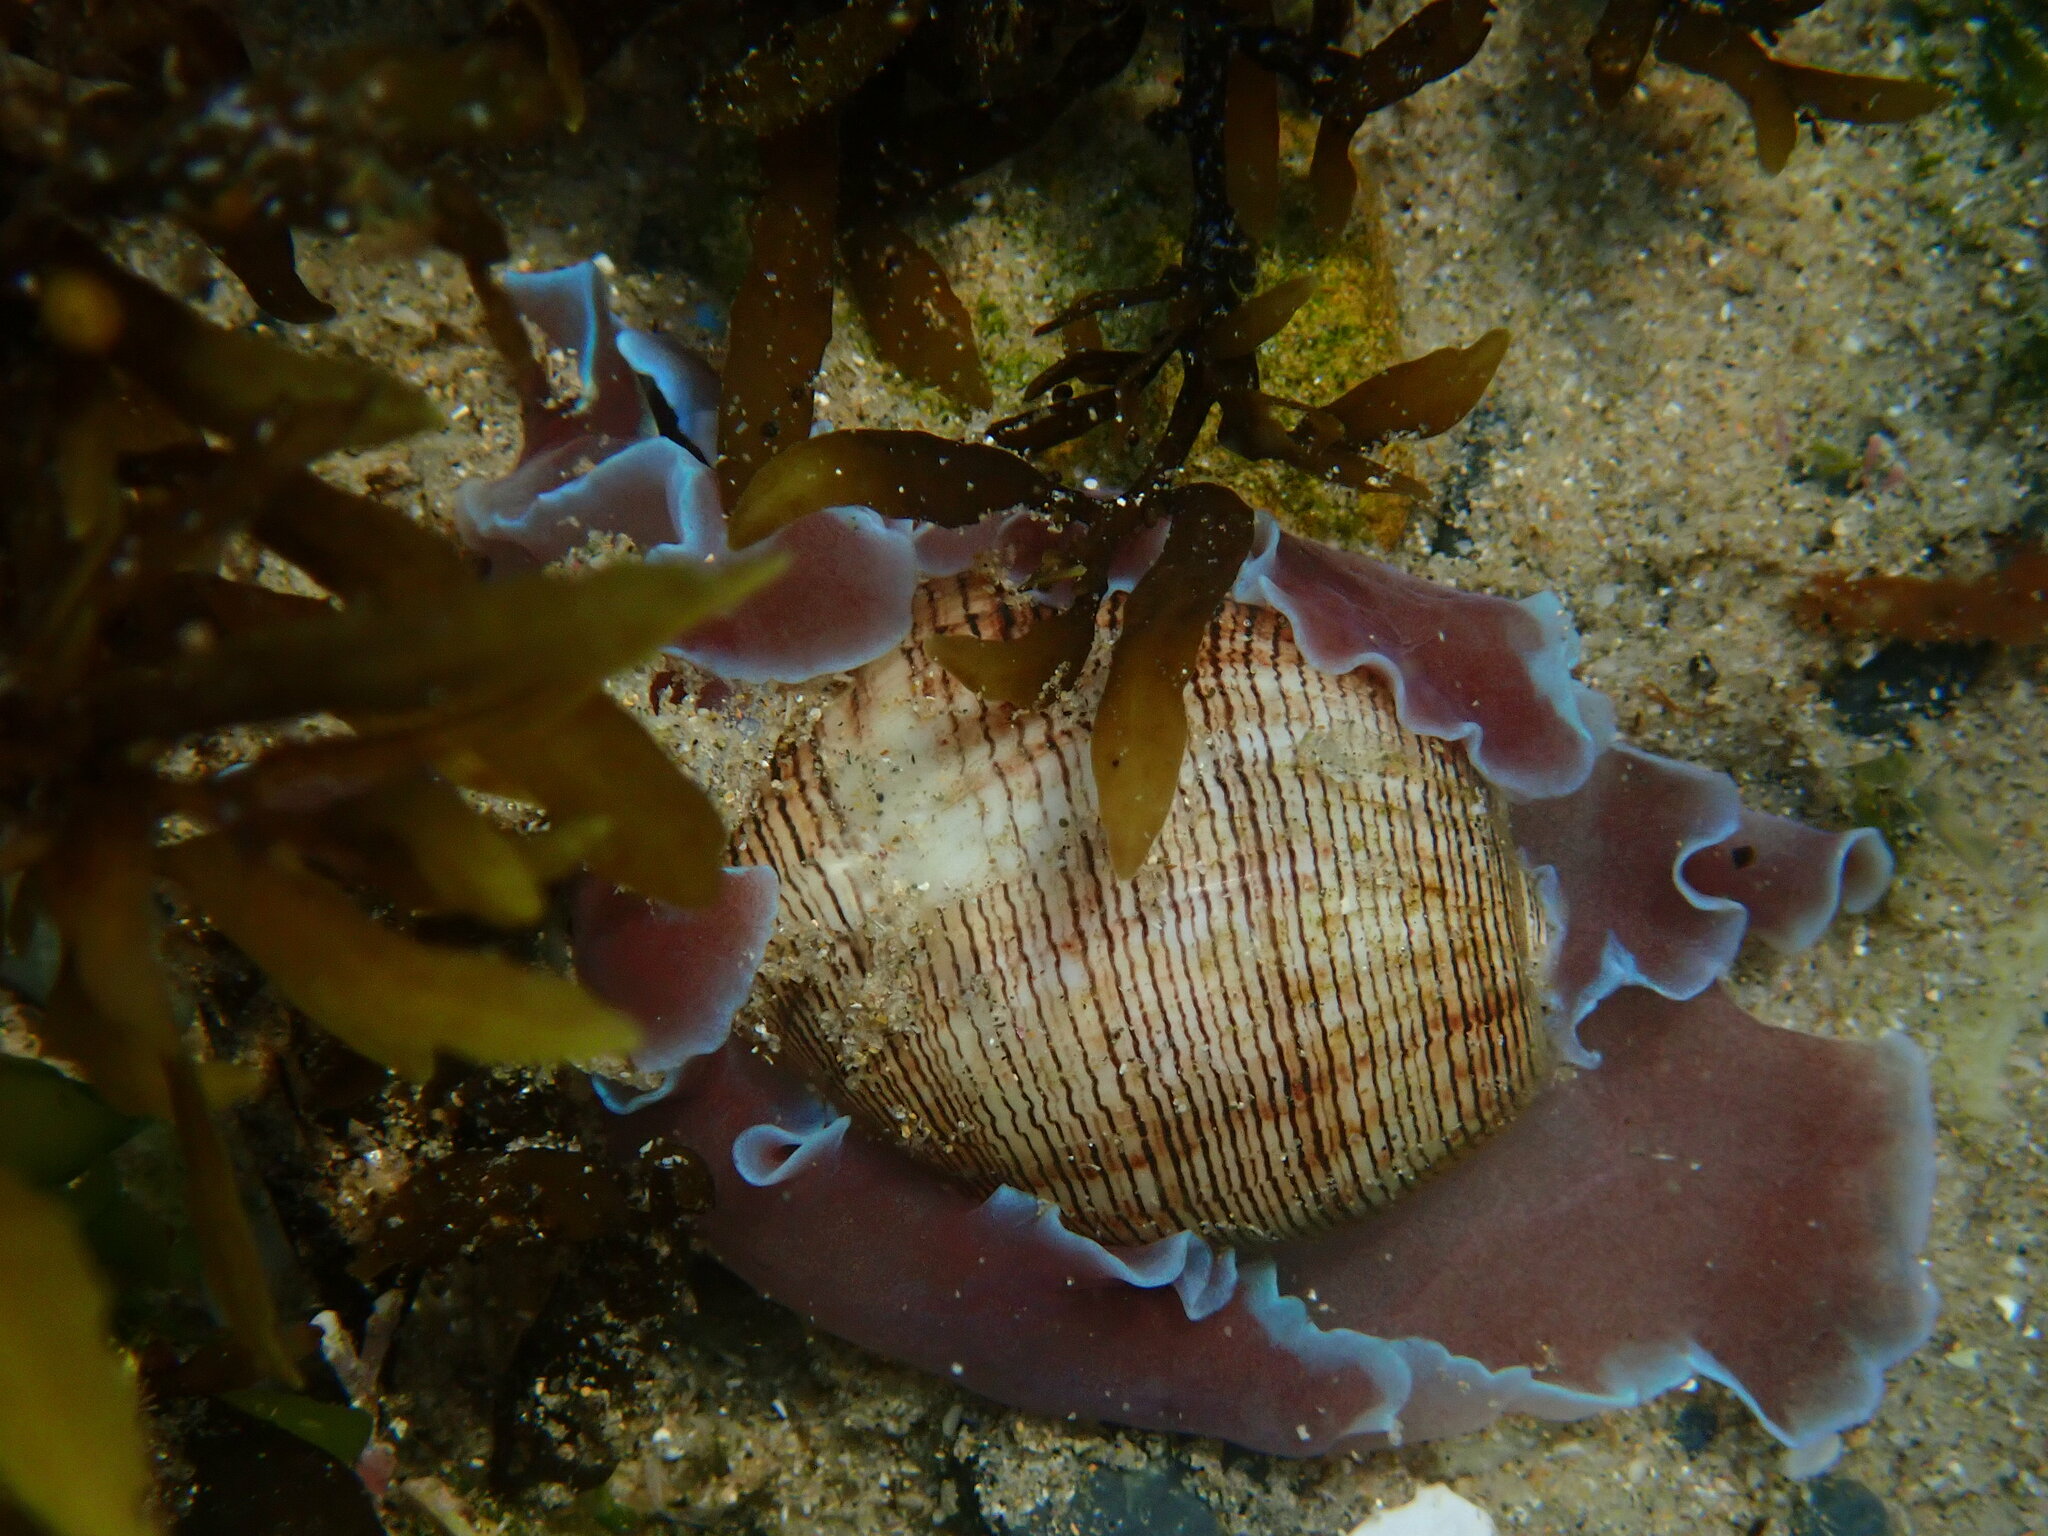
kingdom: Animalia
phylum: Mollusca
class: Gastropoda
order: Cephalaspidea
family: Aplustridae
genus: Hydatina
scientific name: Hydatina physis
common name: Brown-line paperbubble
